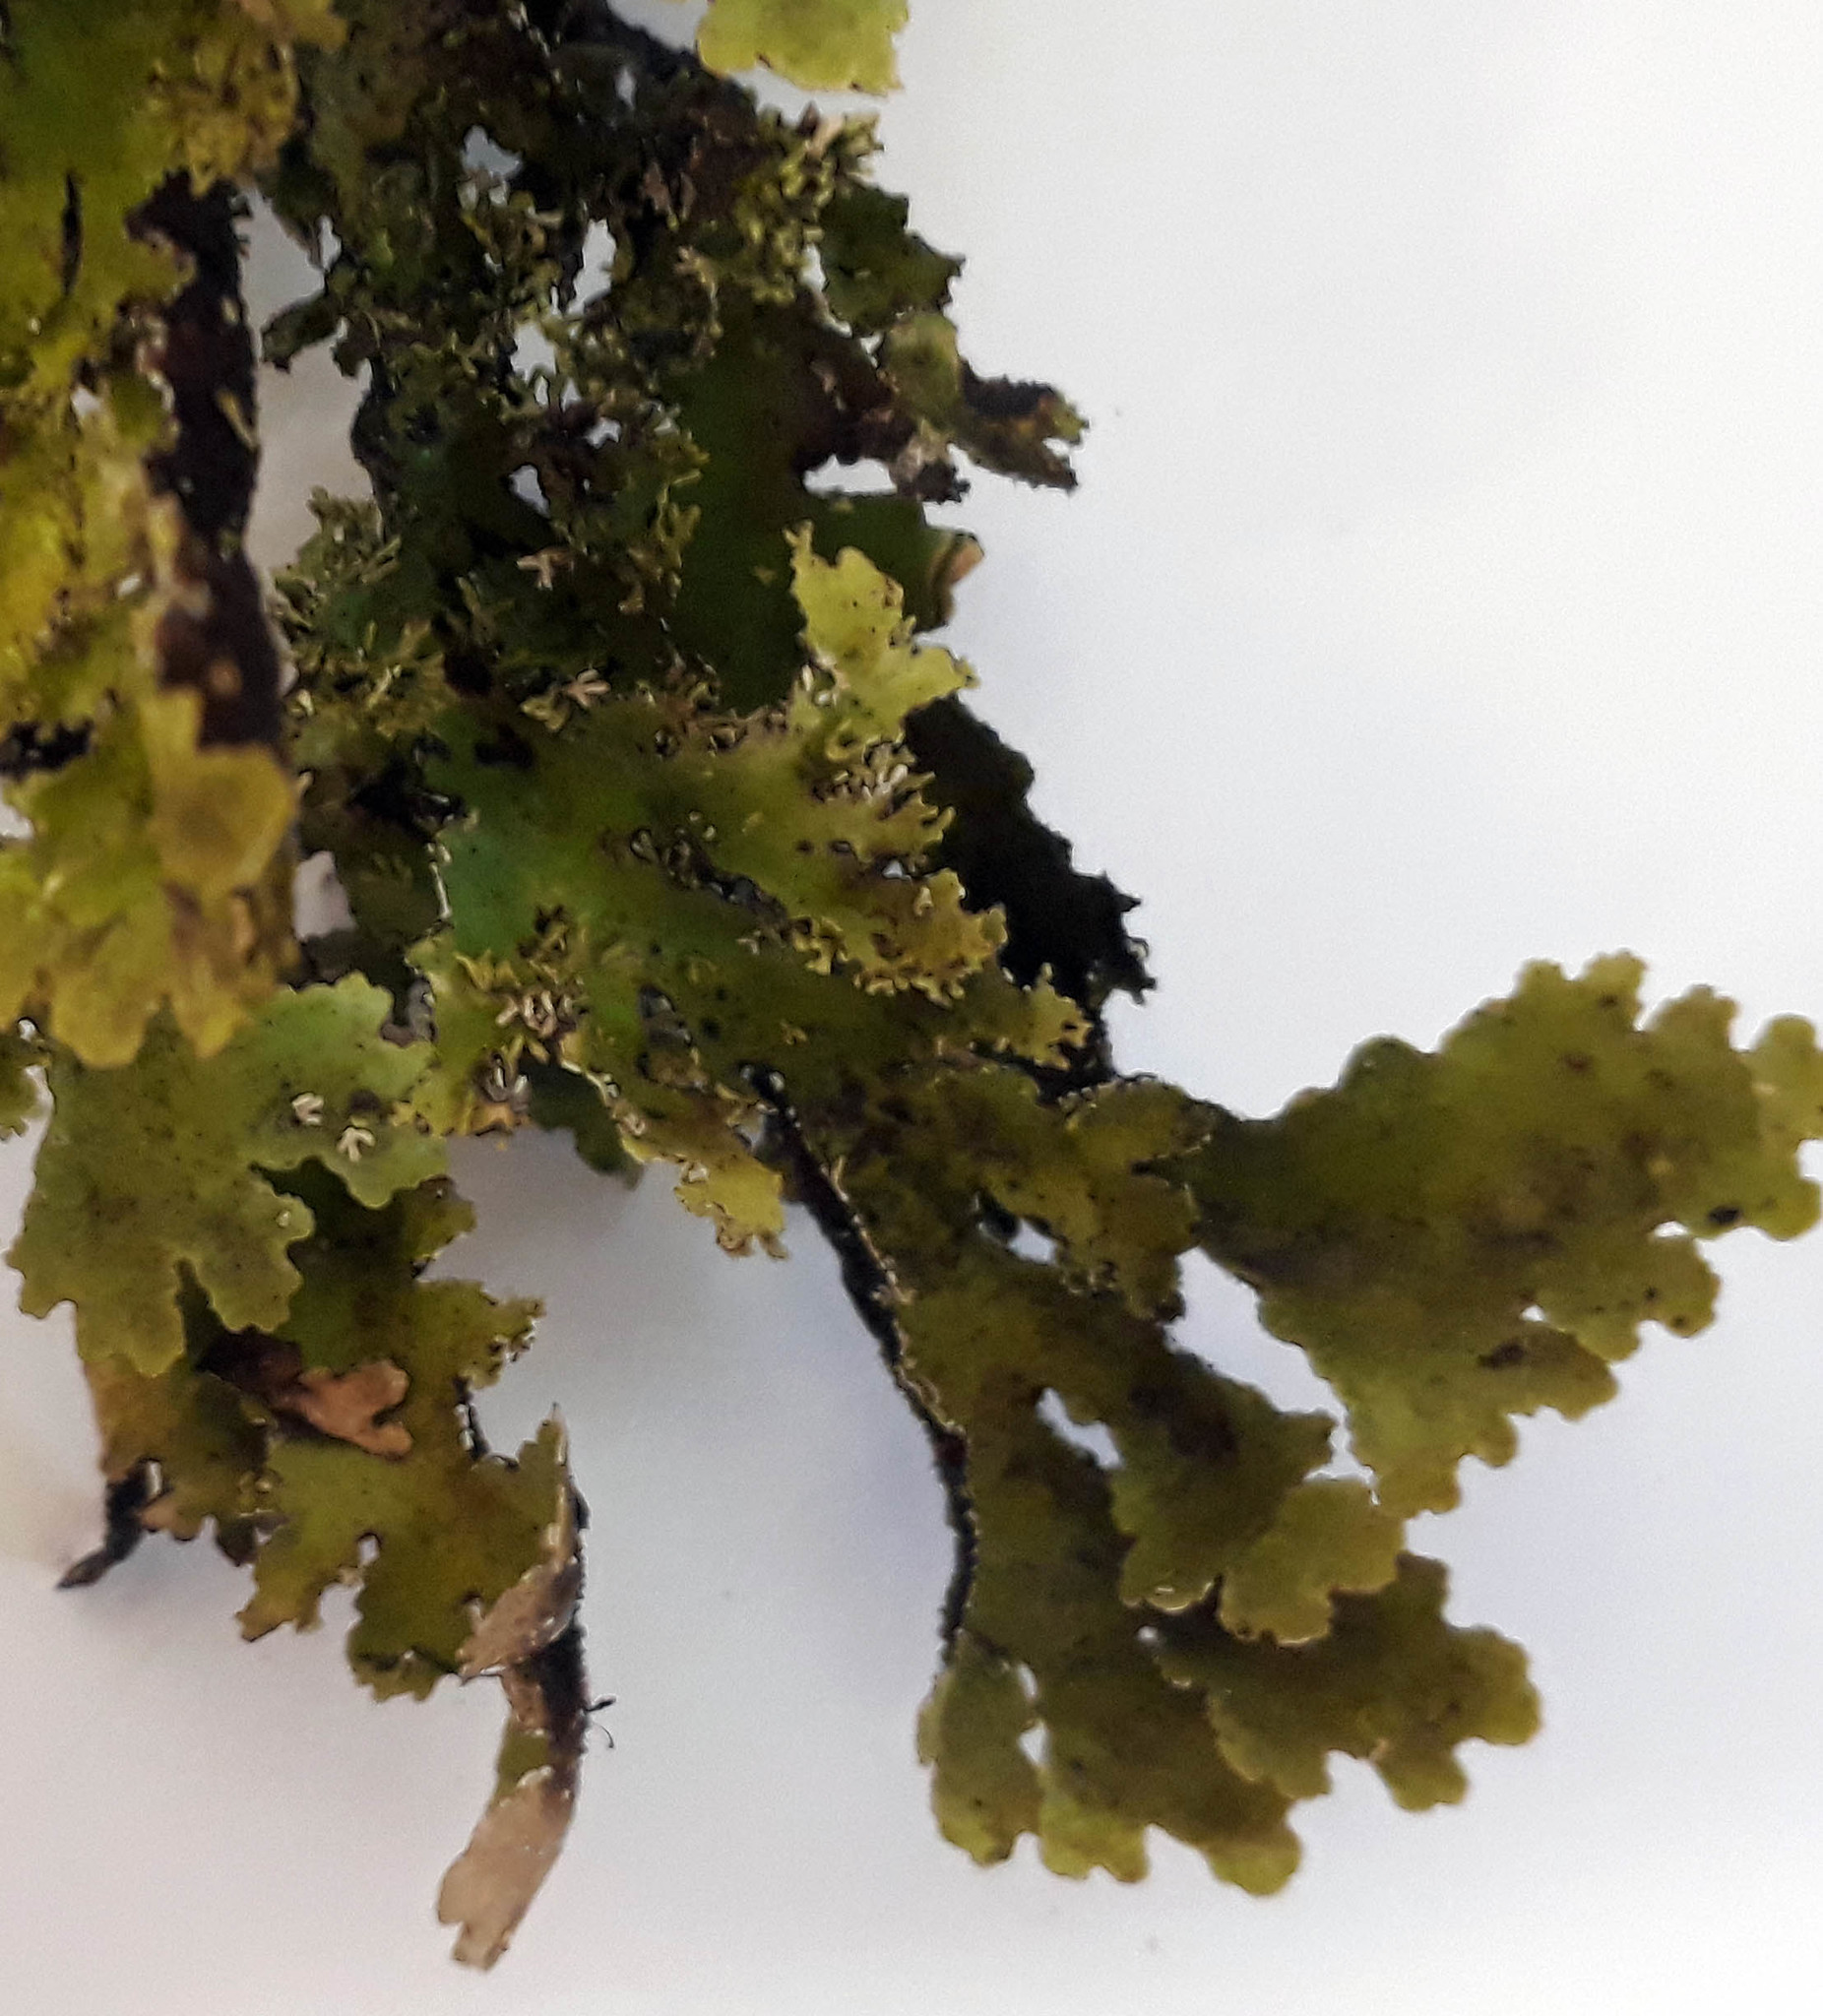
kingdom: Fungi
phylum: Ascomycota
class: Lecanoromycetes
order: Peltigerales
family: Lobariaceae
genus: Pseudocyphellaria
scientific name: Pseudocyphellaria glabra
